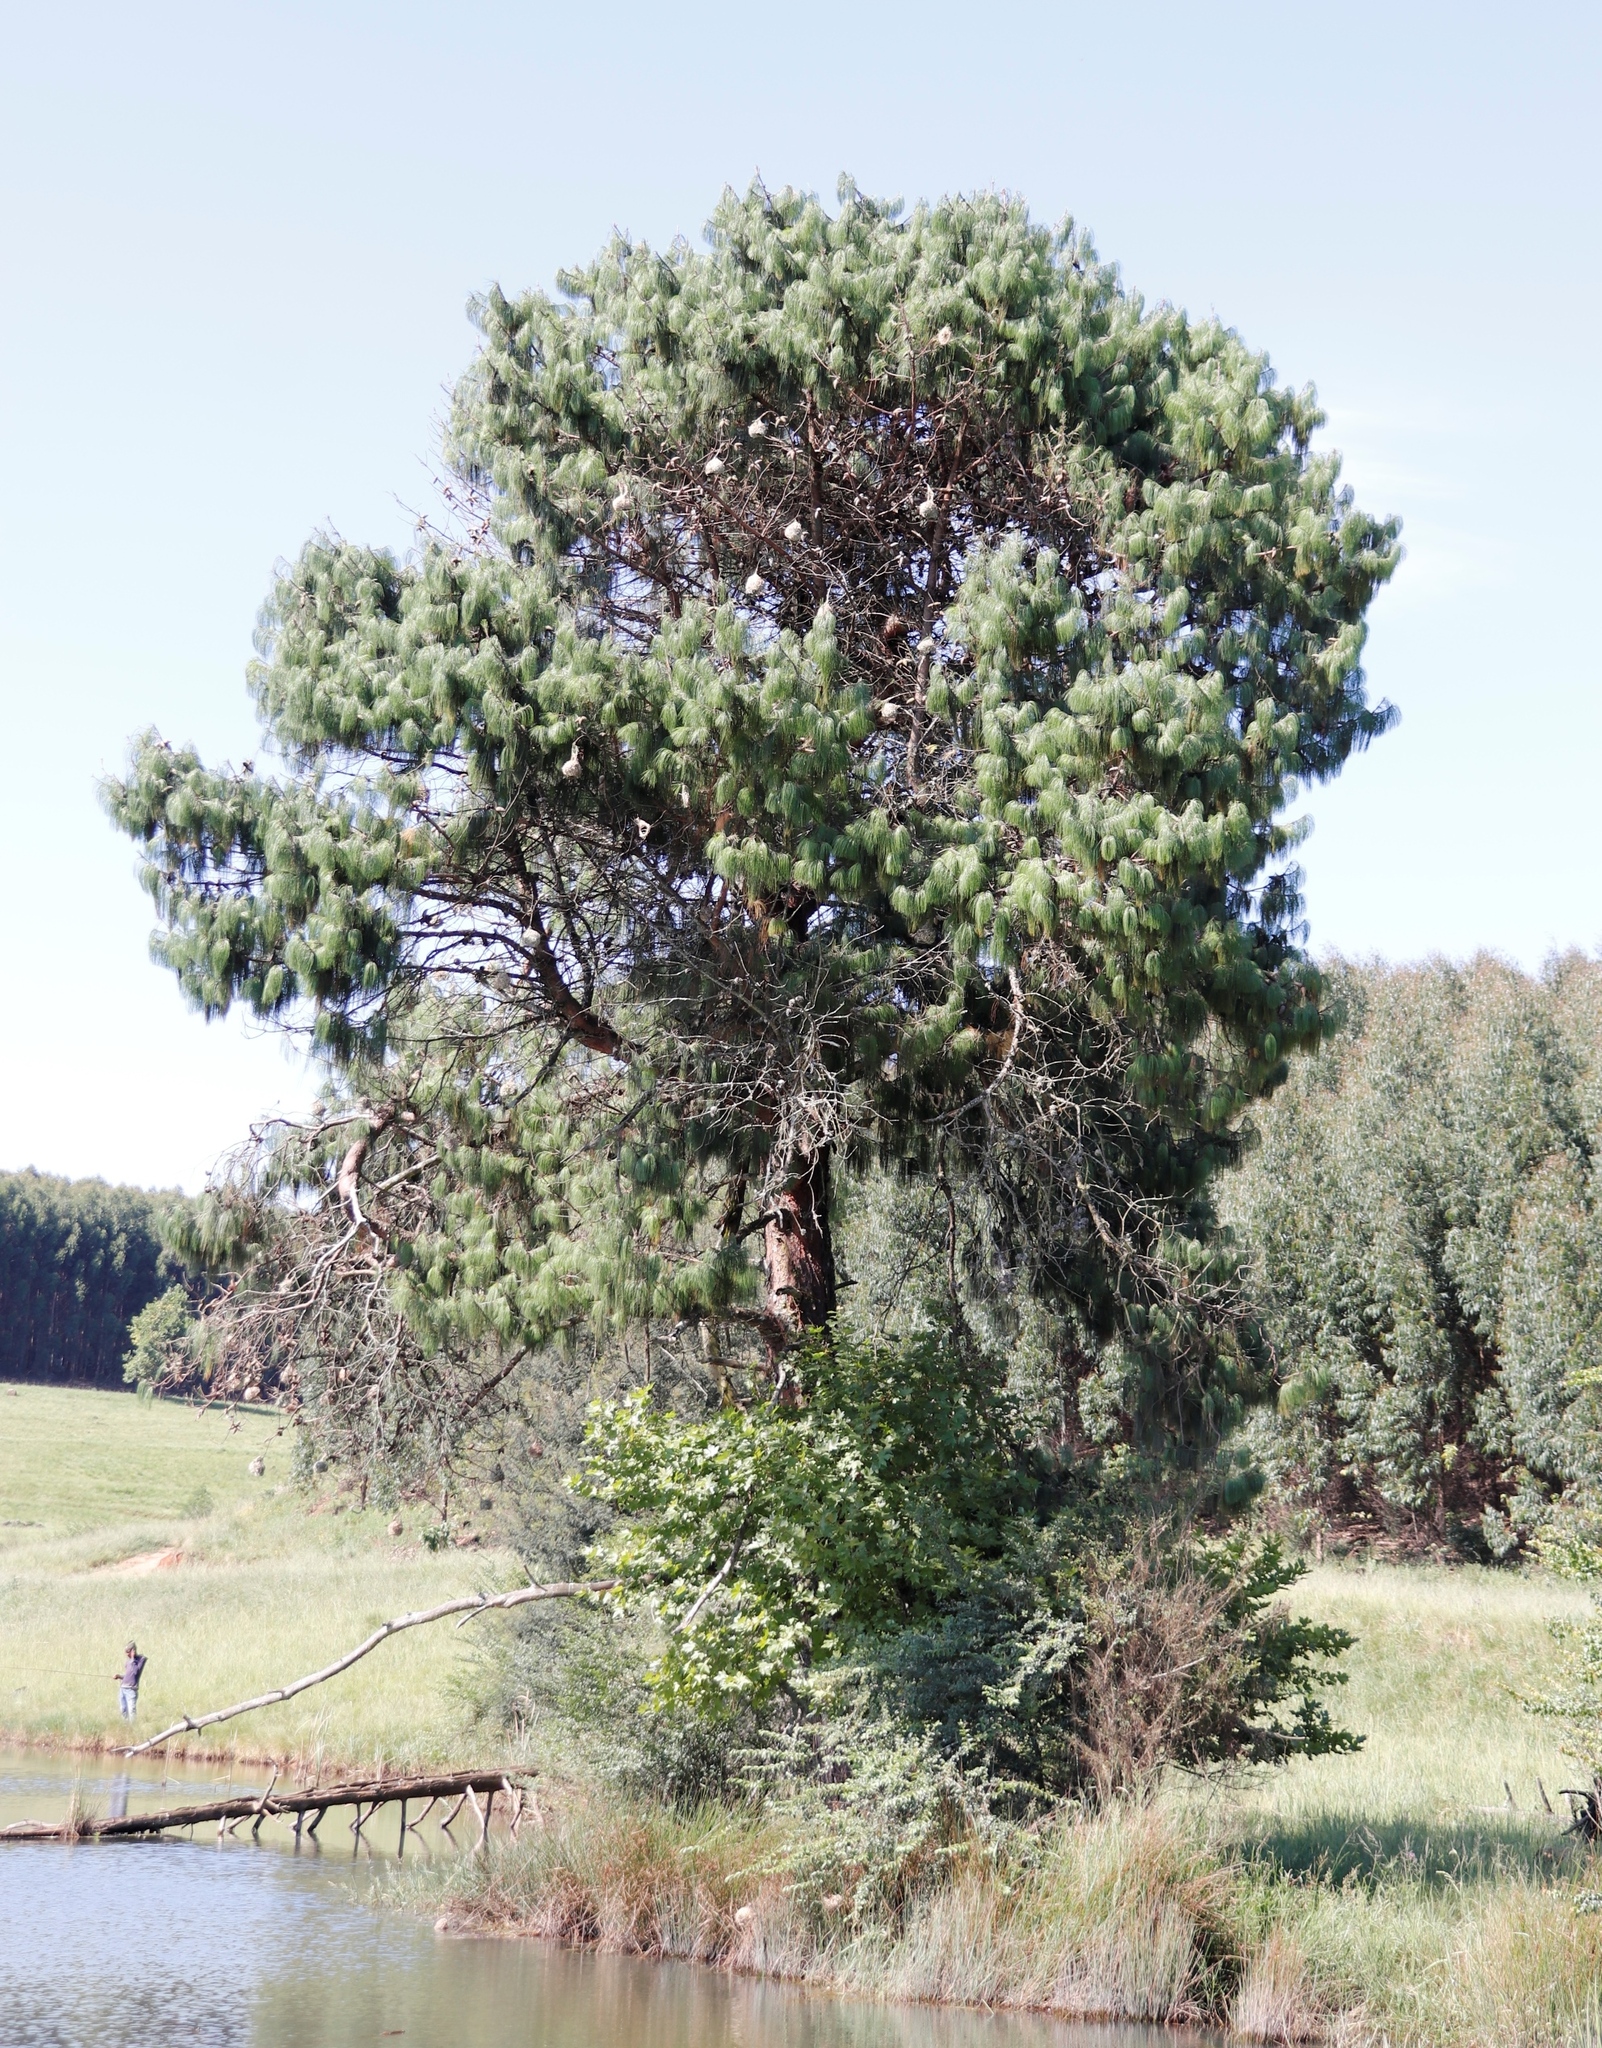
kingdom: Plantae
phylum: Tracheophyta
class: Pinopsida
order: Pinales
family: Pinaceae
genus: Pinus
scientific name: Pinus patula
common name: Mexican weeping pine
